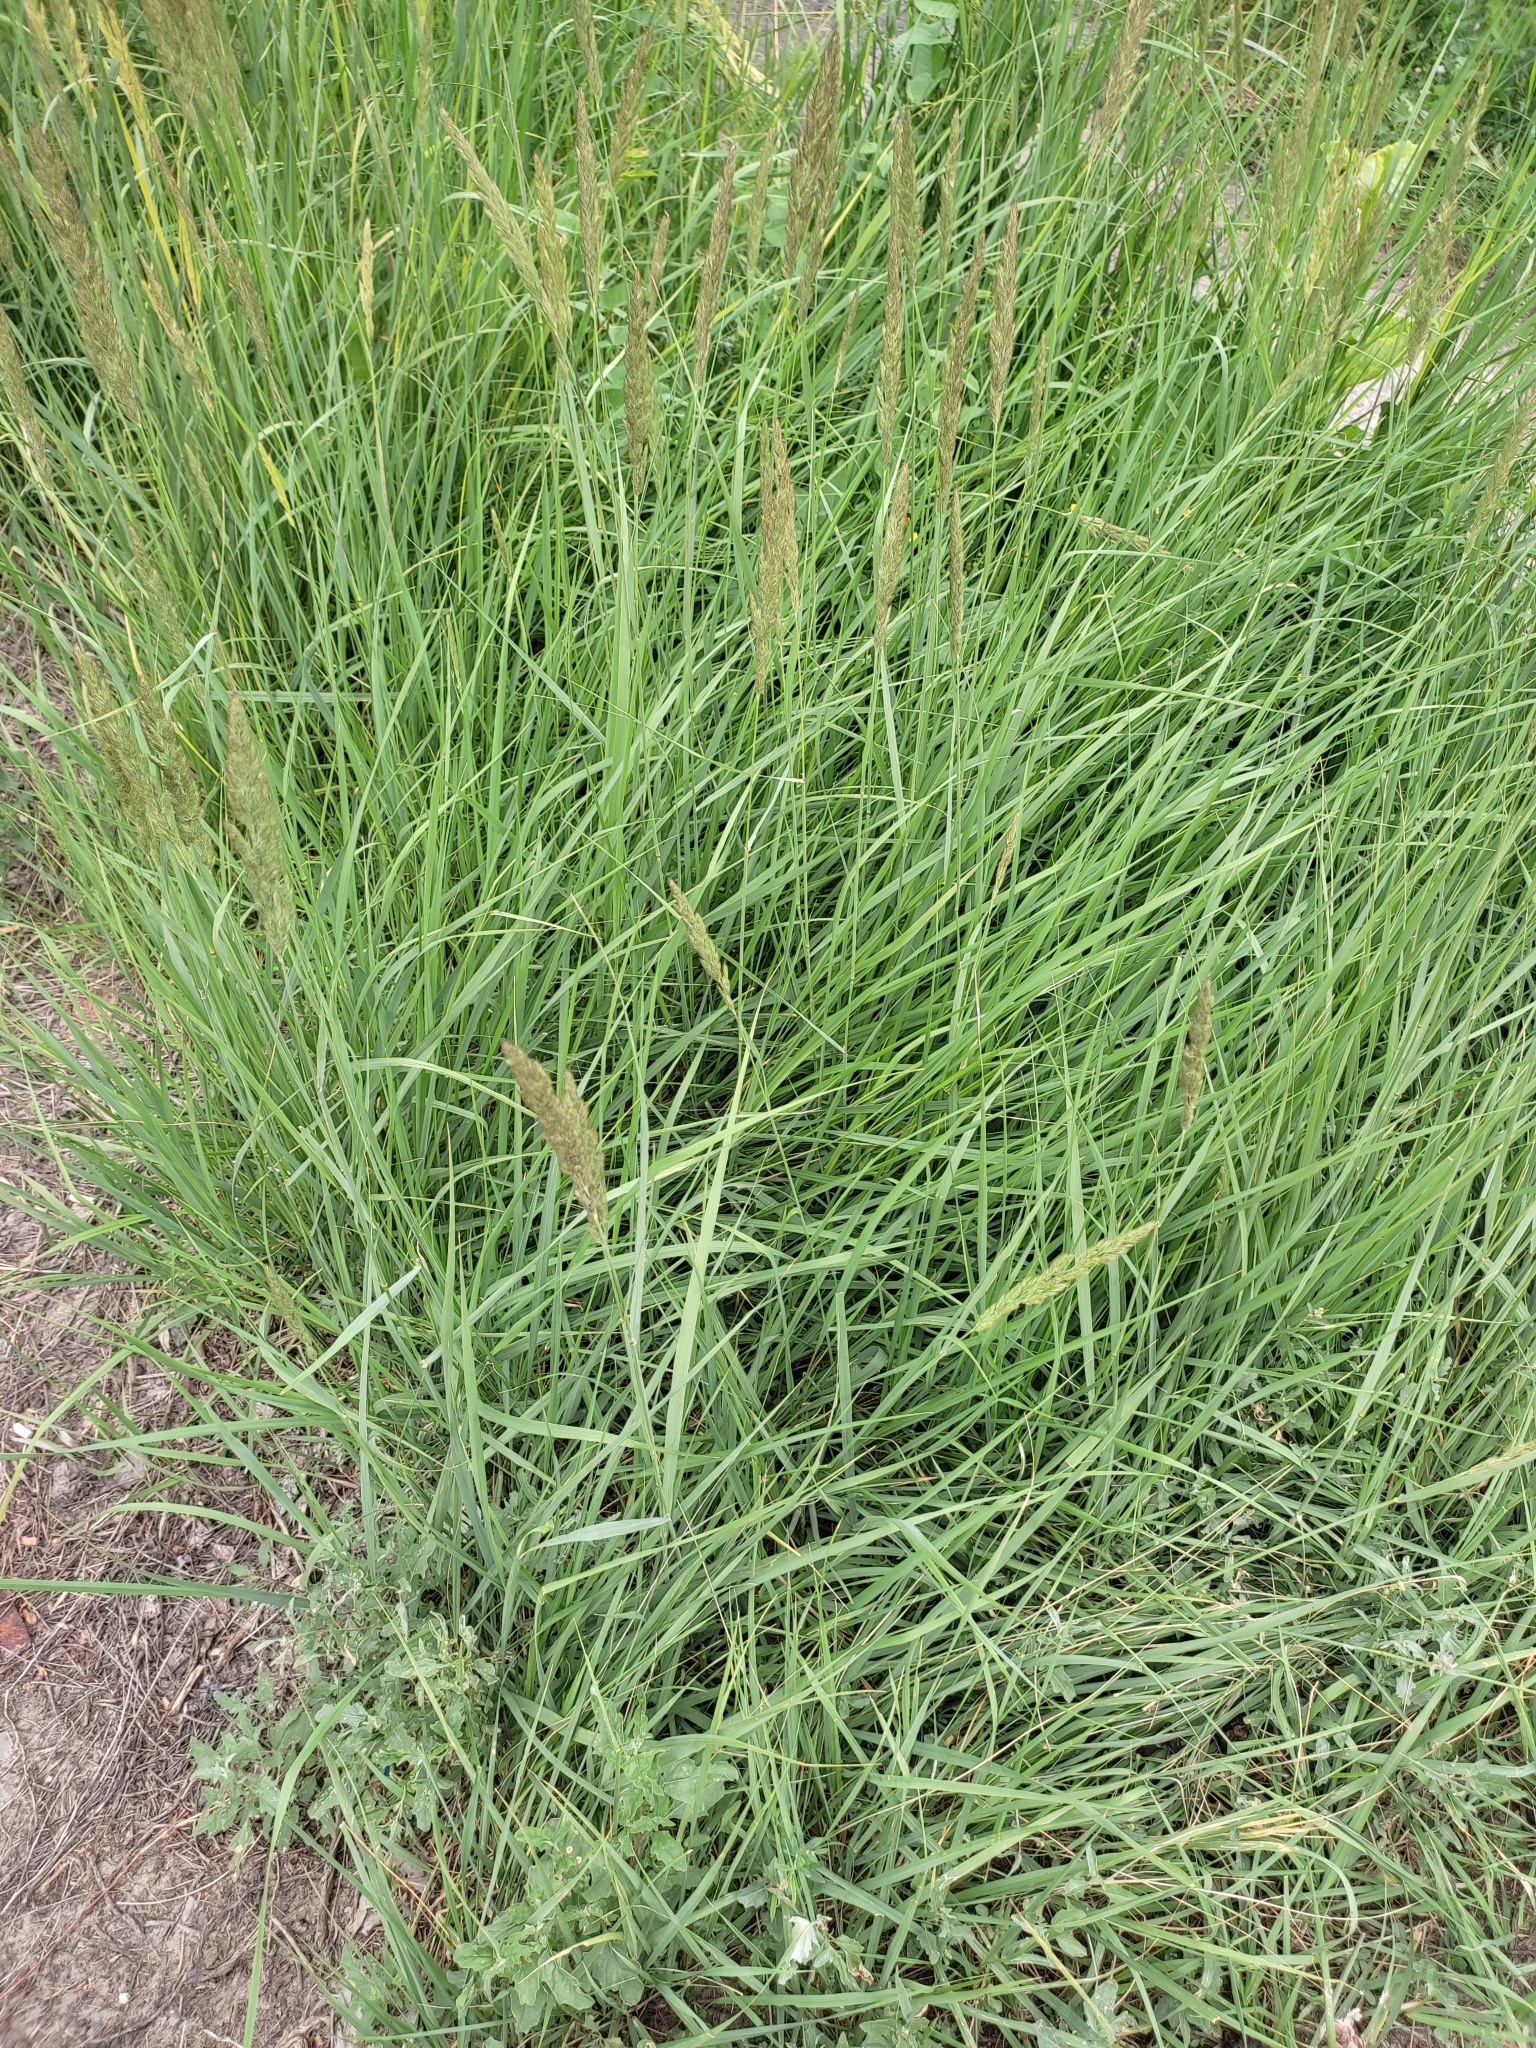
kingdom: Plantae
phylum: Tracheophyta
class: Liliopsida
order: Poales
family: Poaceae
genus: Calamagrostis
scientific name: Calamagrostis epigejos
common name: Wood small-reed
